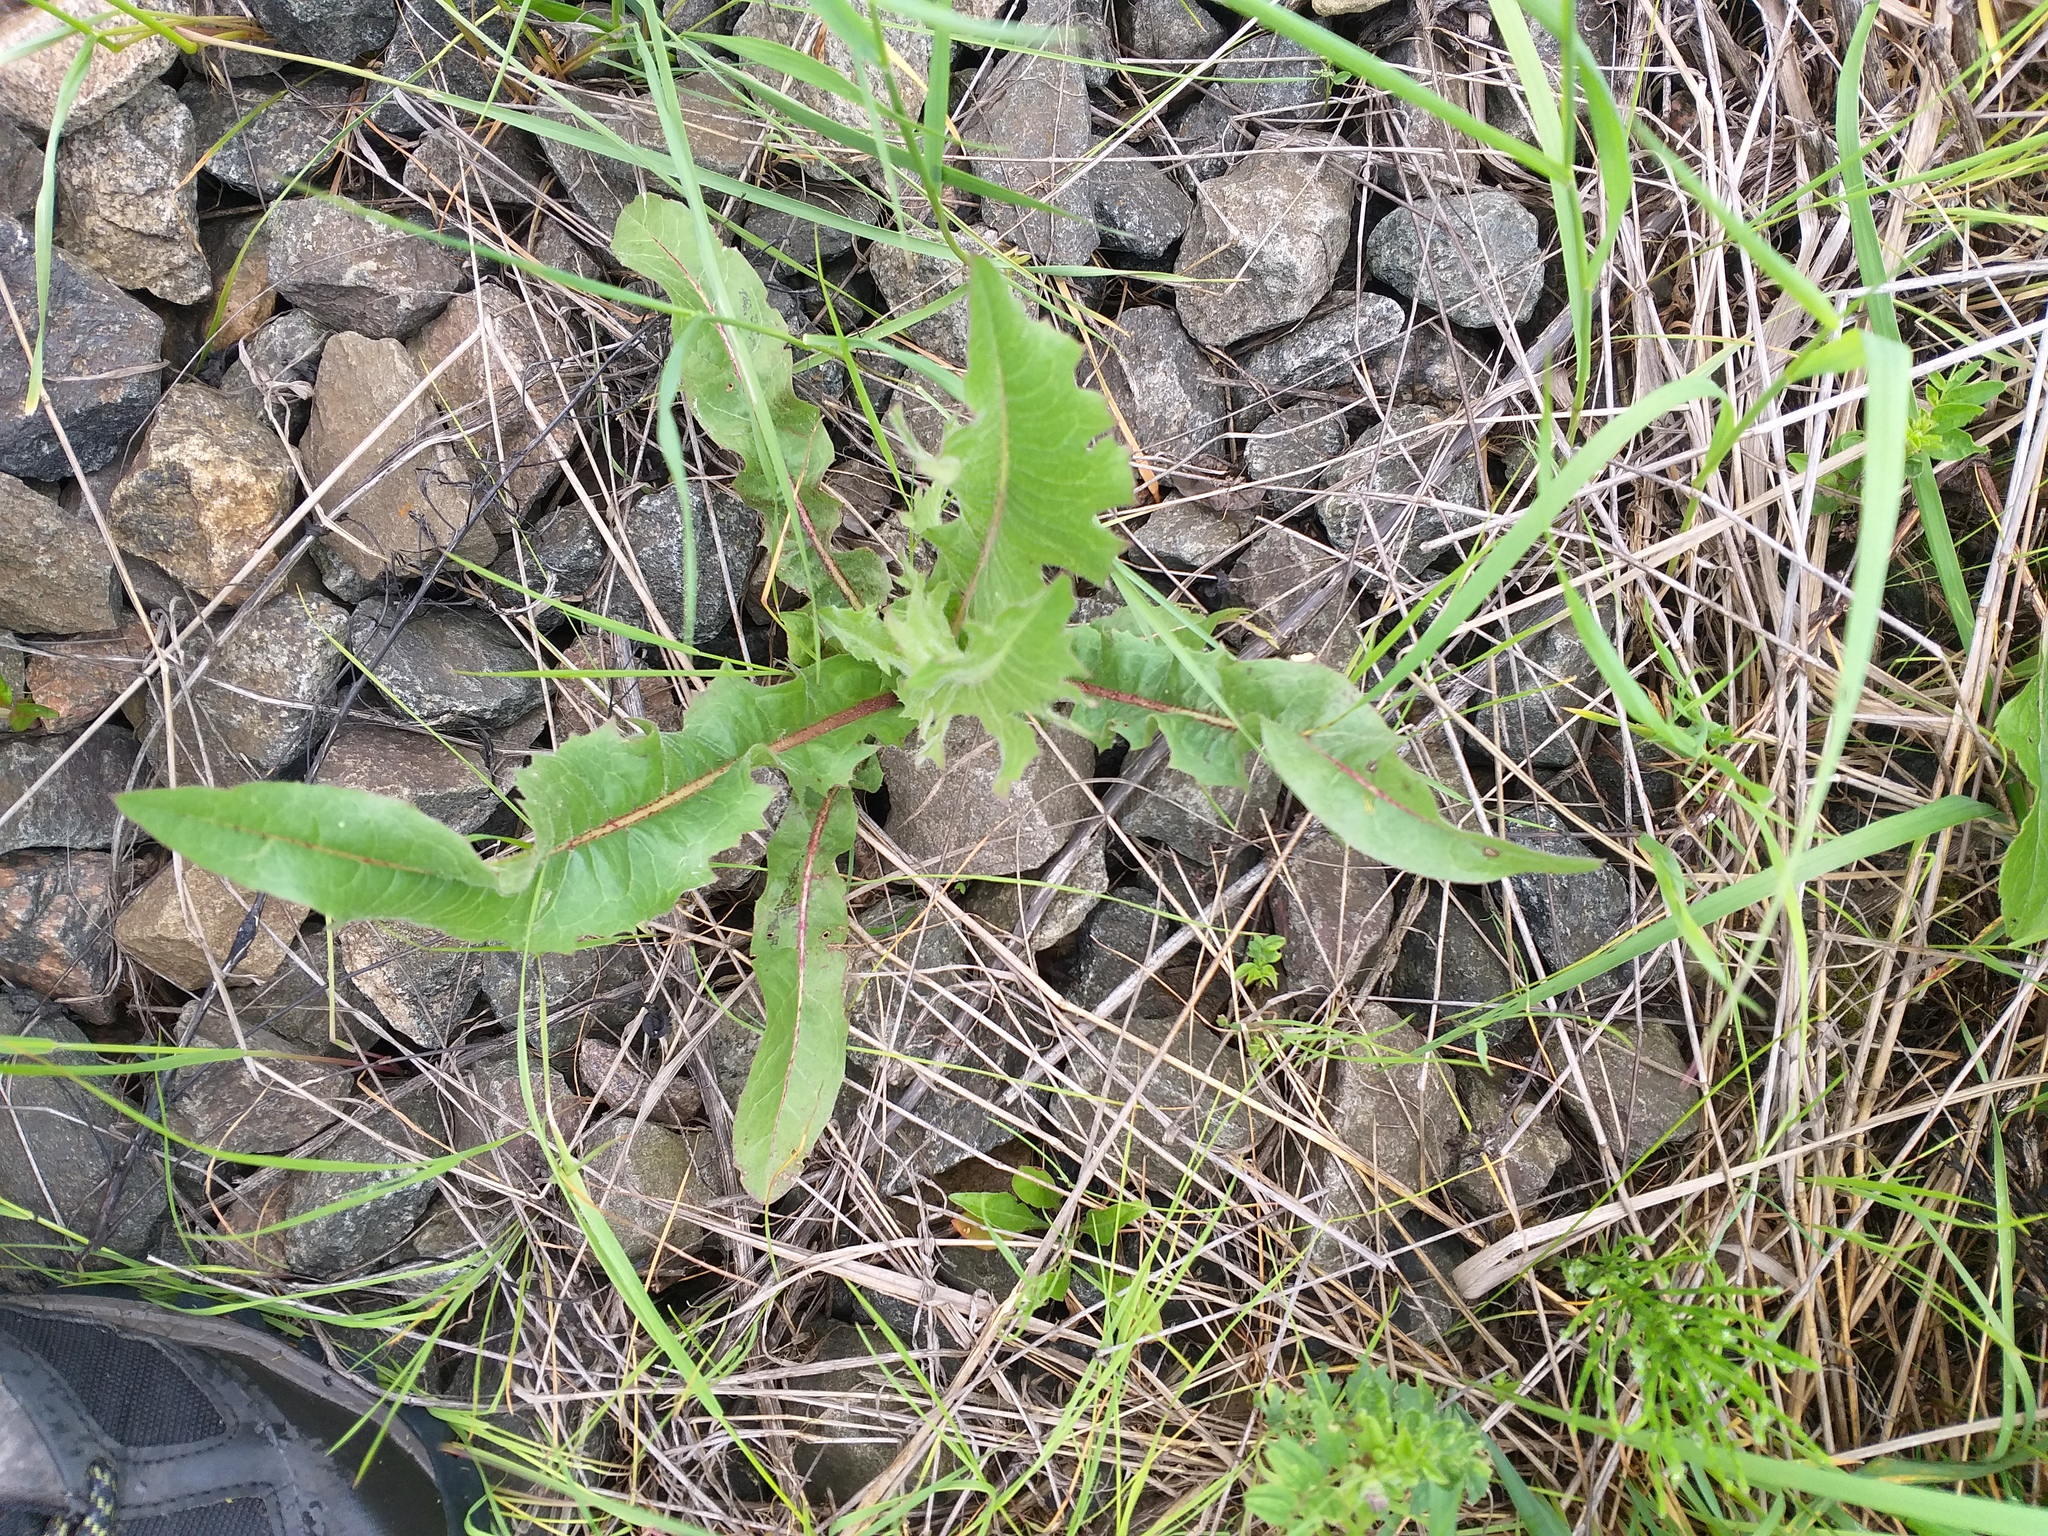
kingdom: Plantae
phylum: Tracheophyta
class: Magnoliopsida
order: Asterales
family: Asteraceae
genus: Cichorium
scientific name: Cichorium intybus
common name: Chicory
